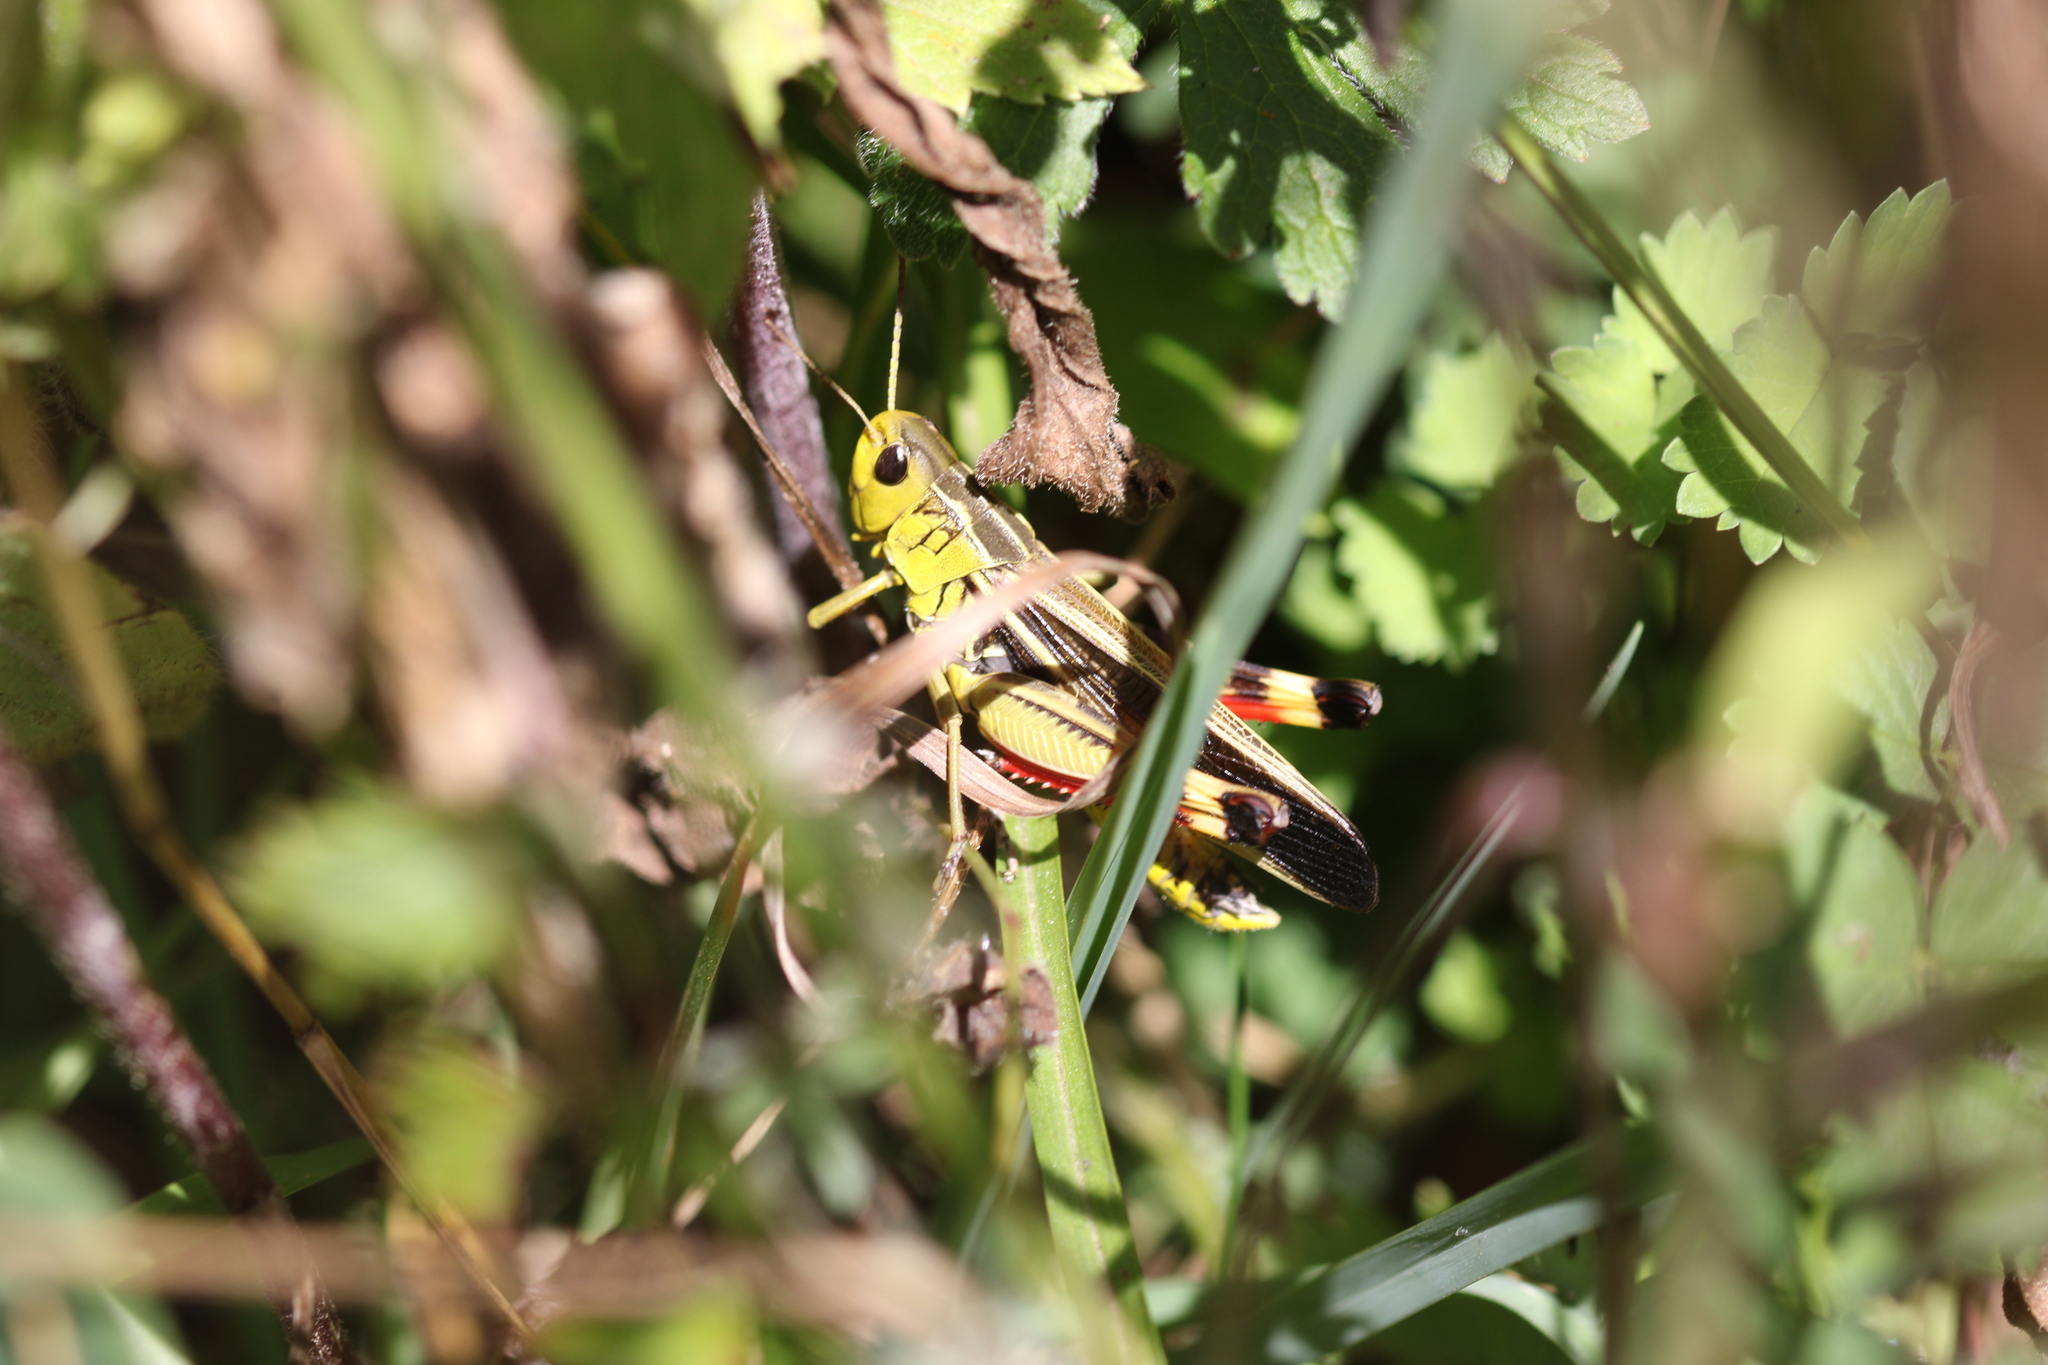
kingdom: Animalia
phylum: Arthropoda
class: Insecta
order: Orthoptera
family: Acrididae
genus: Arcyptera
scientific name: Arcyptera fusca
